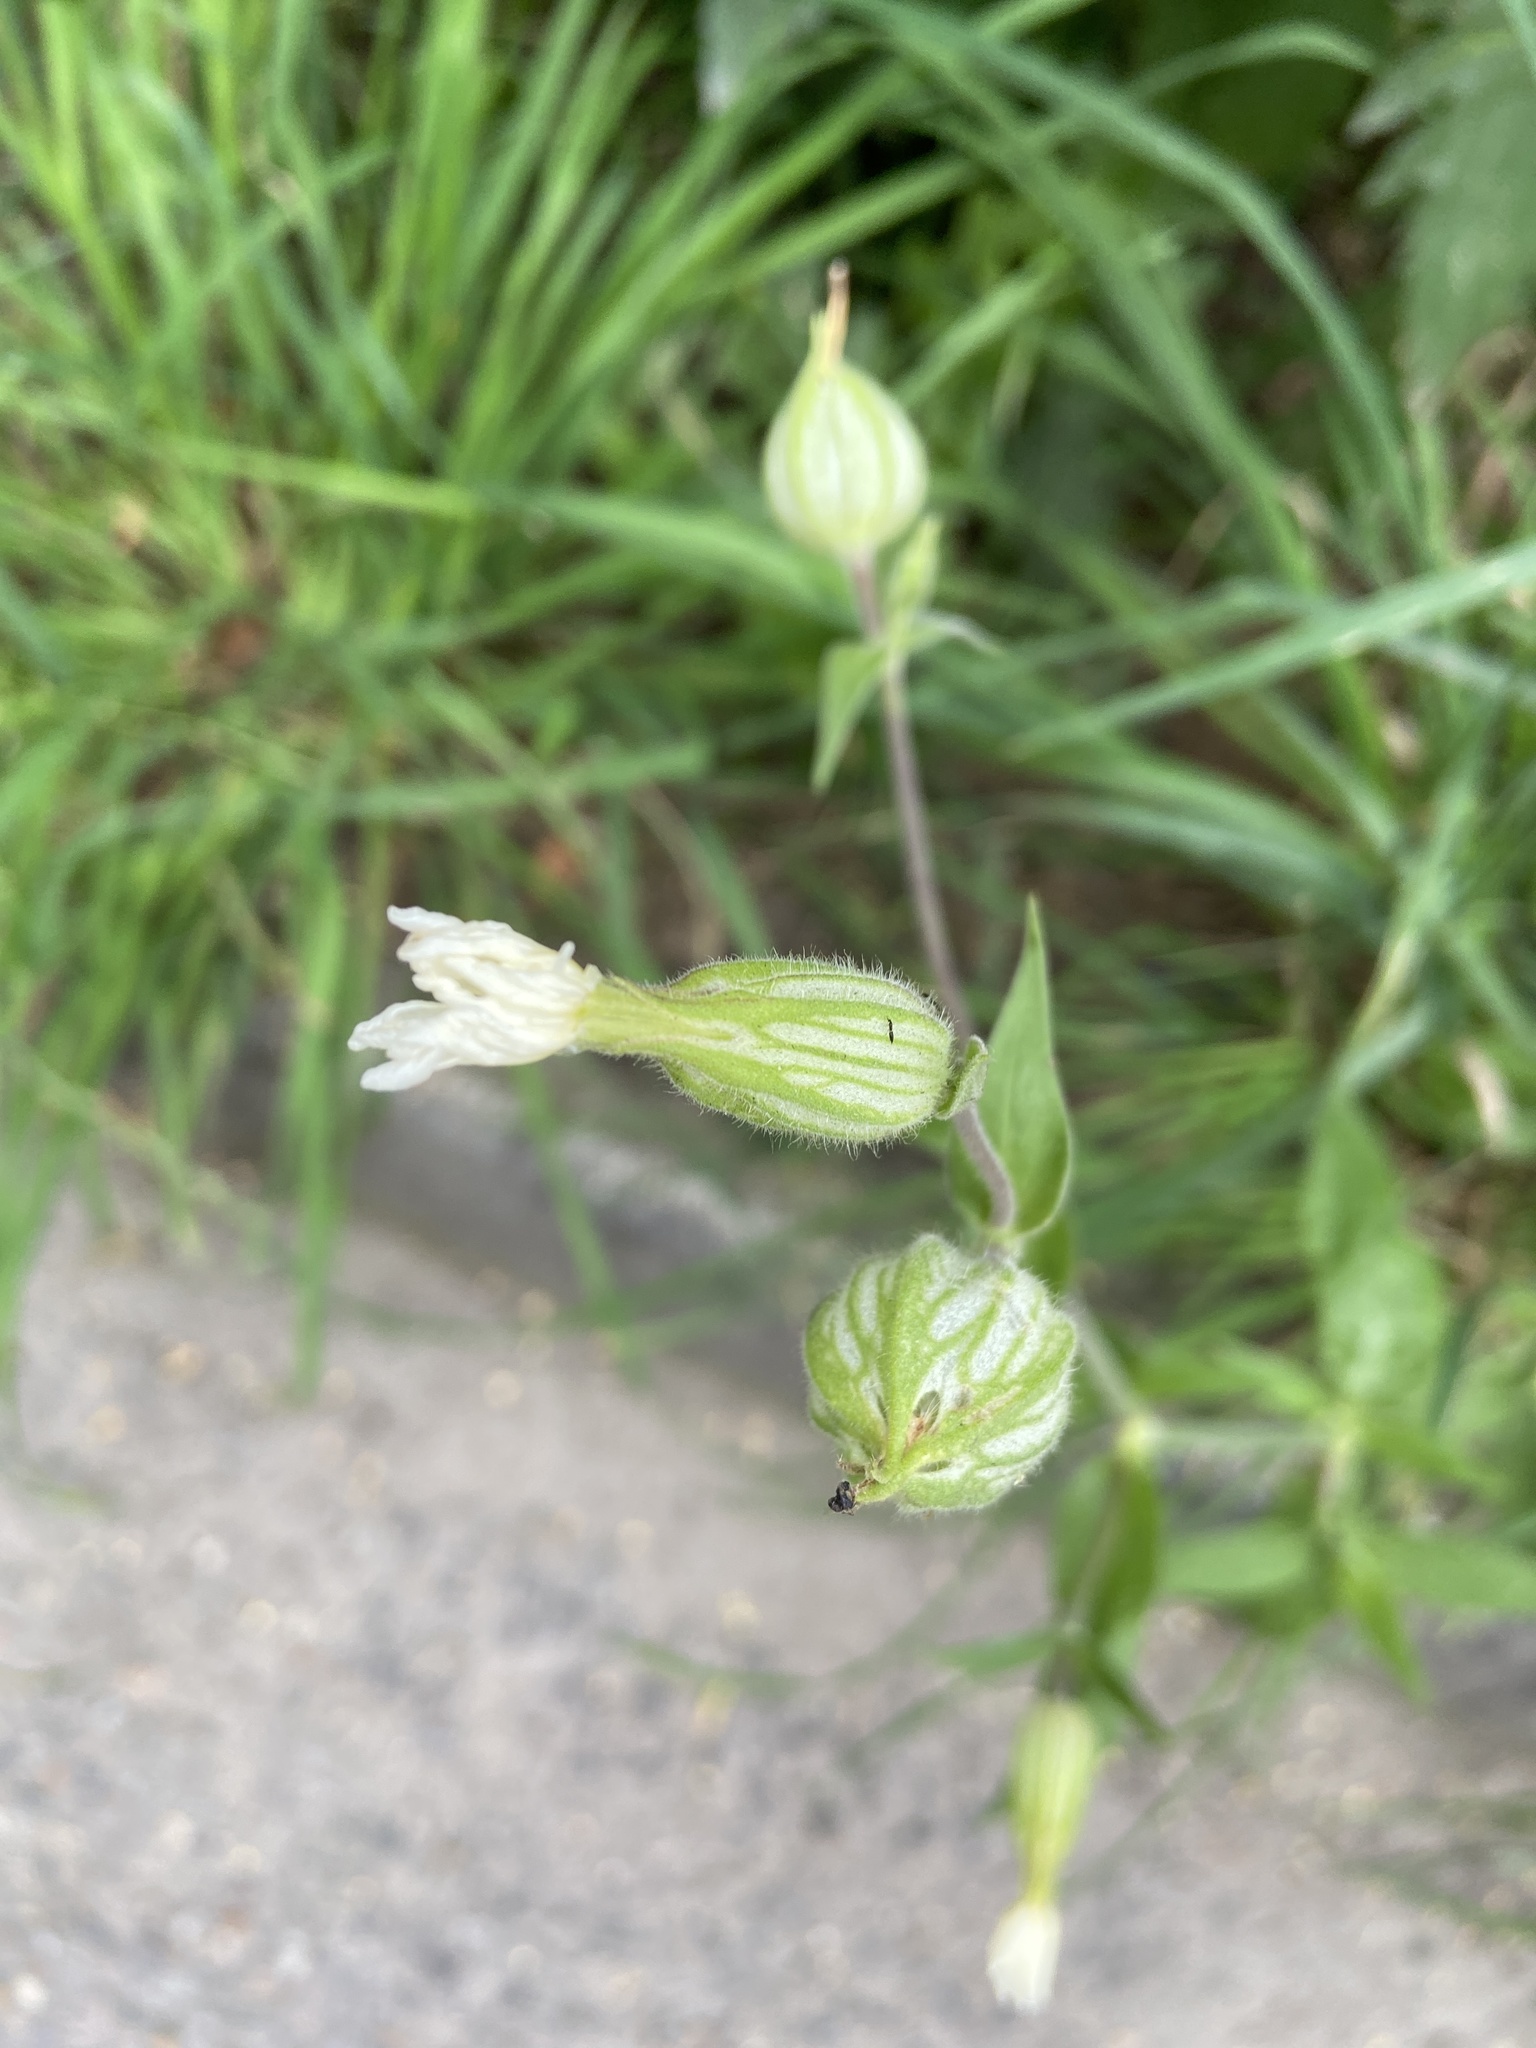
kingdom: Plantae
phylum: Tracheophyta
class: Magnoliopsida
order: Caryophyllales
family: Caryophyllaceae
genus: Silene
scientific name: Silene latifolia
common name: White campion
